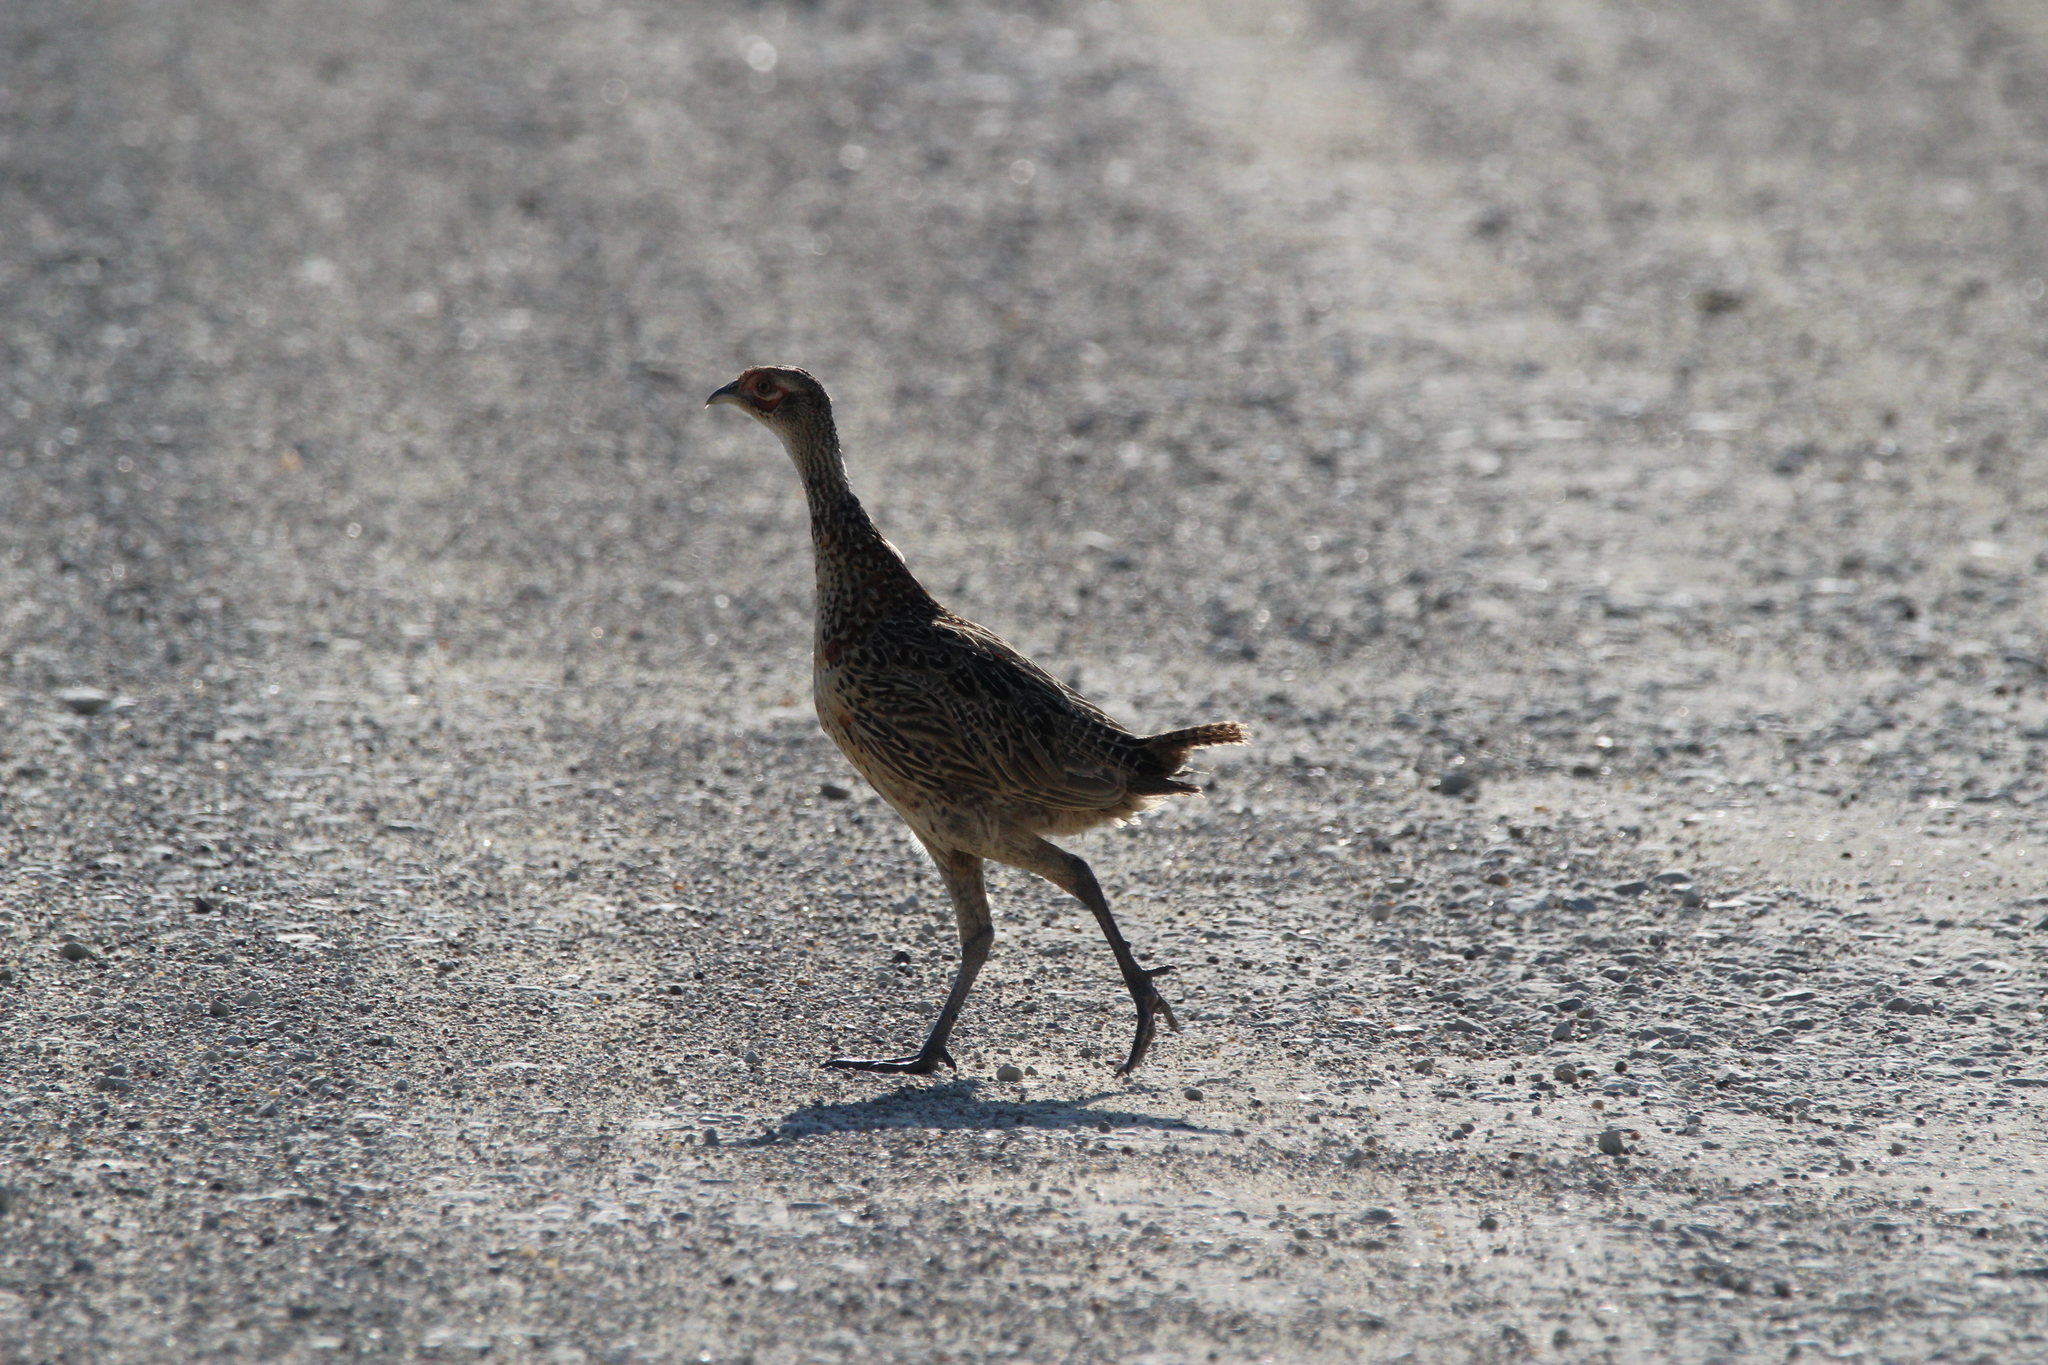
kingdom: Animalia
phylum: Chordata
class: Aves
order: Galliformes
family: Phasianidae
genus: Phasianus
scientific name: Phasianus colchicus
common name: Common pheasant
